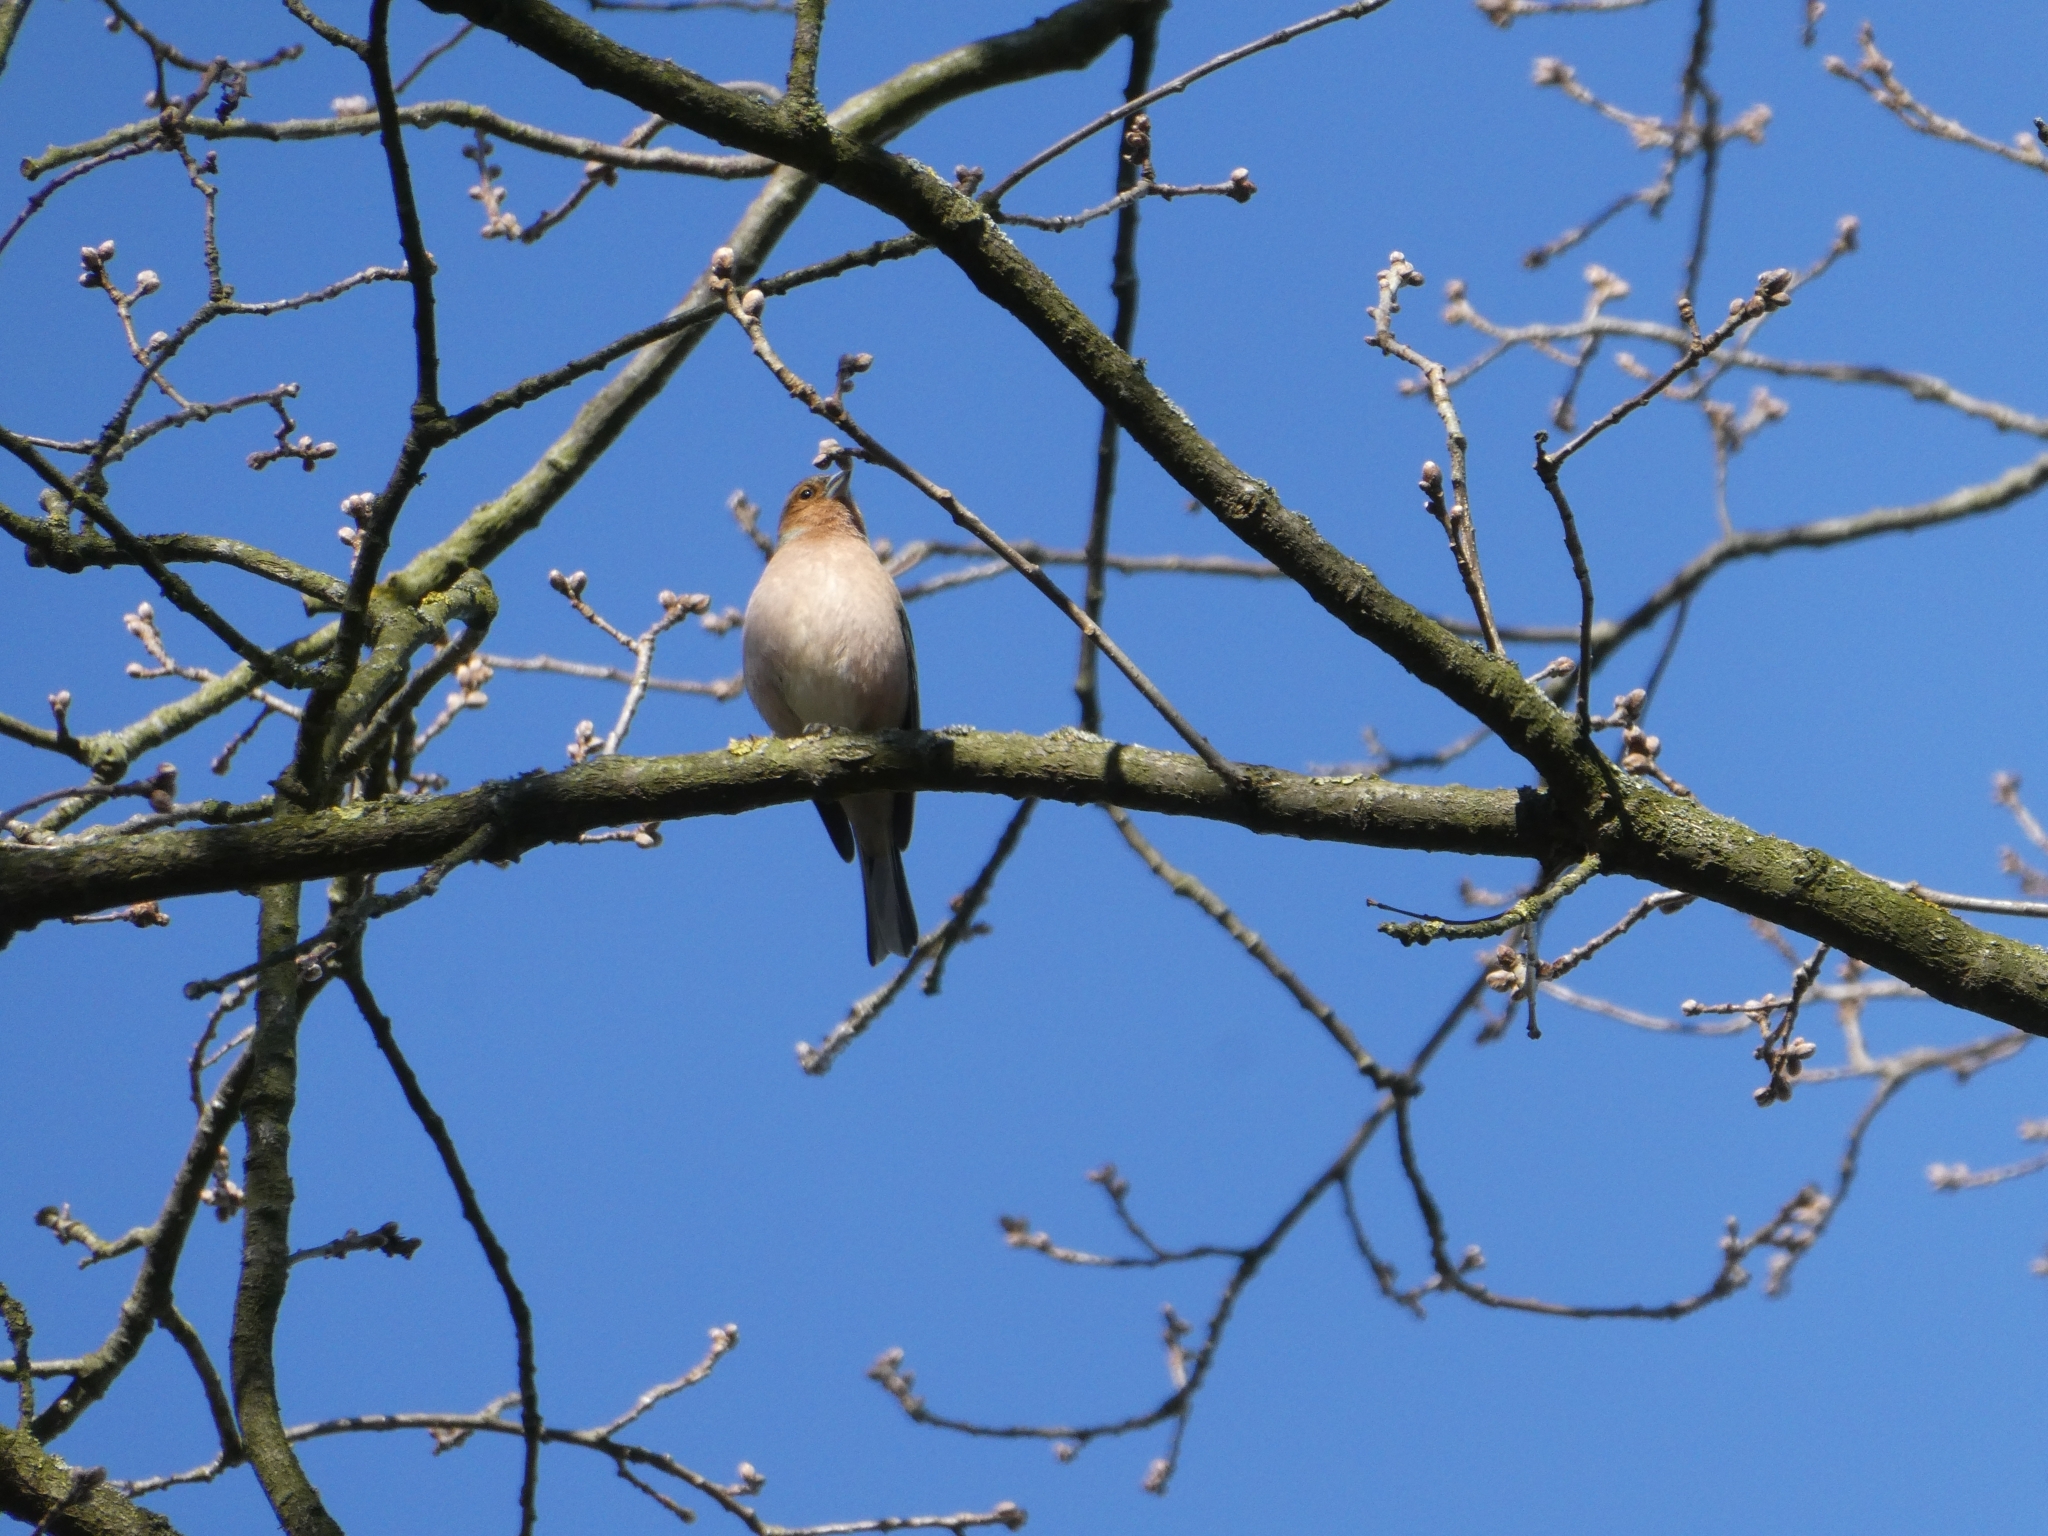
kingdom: Animalia
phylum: Chordata
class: Aves
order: Passeriformes
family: Fringillidae
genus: Fringilla
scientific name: Fringilla coelebs
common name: Common chaffinch
